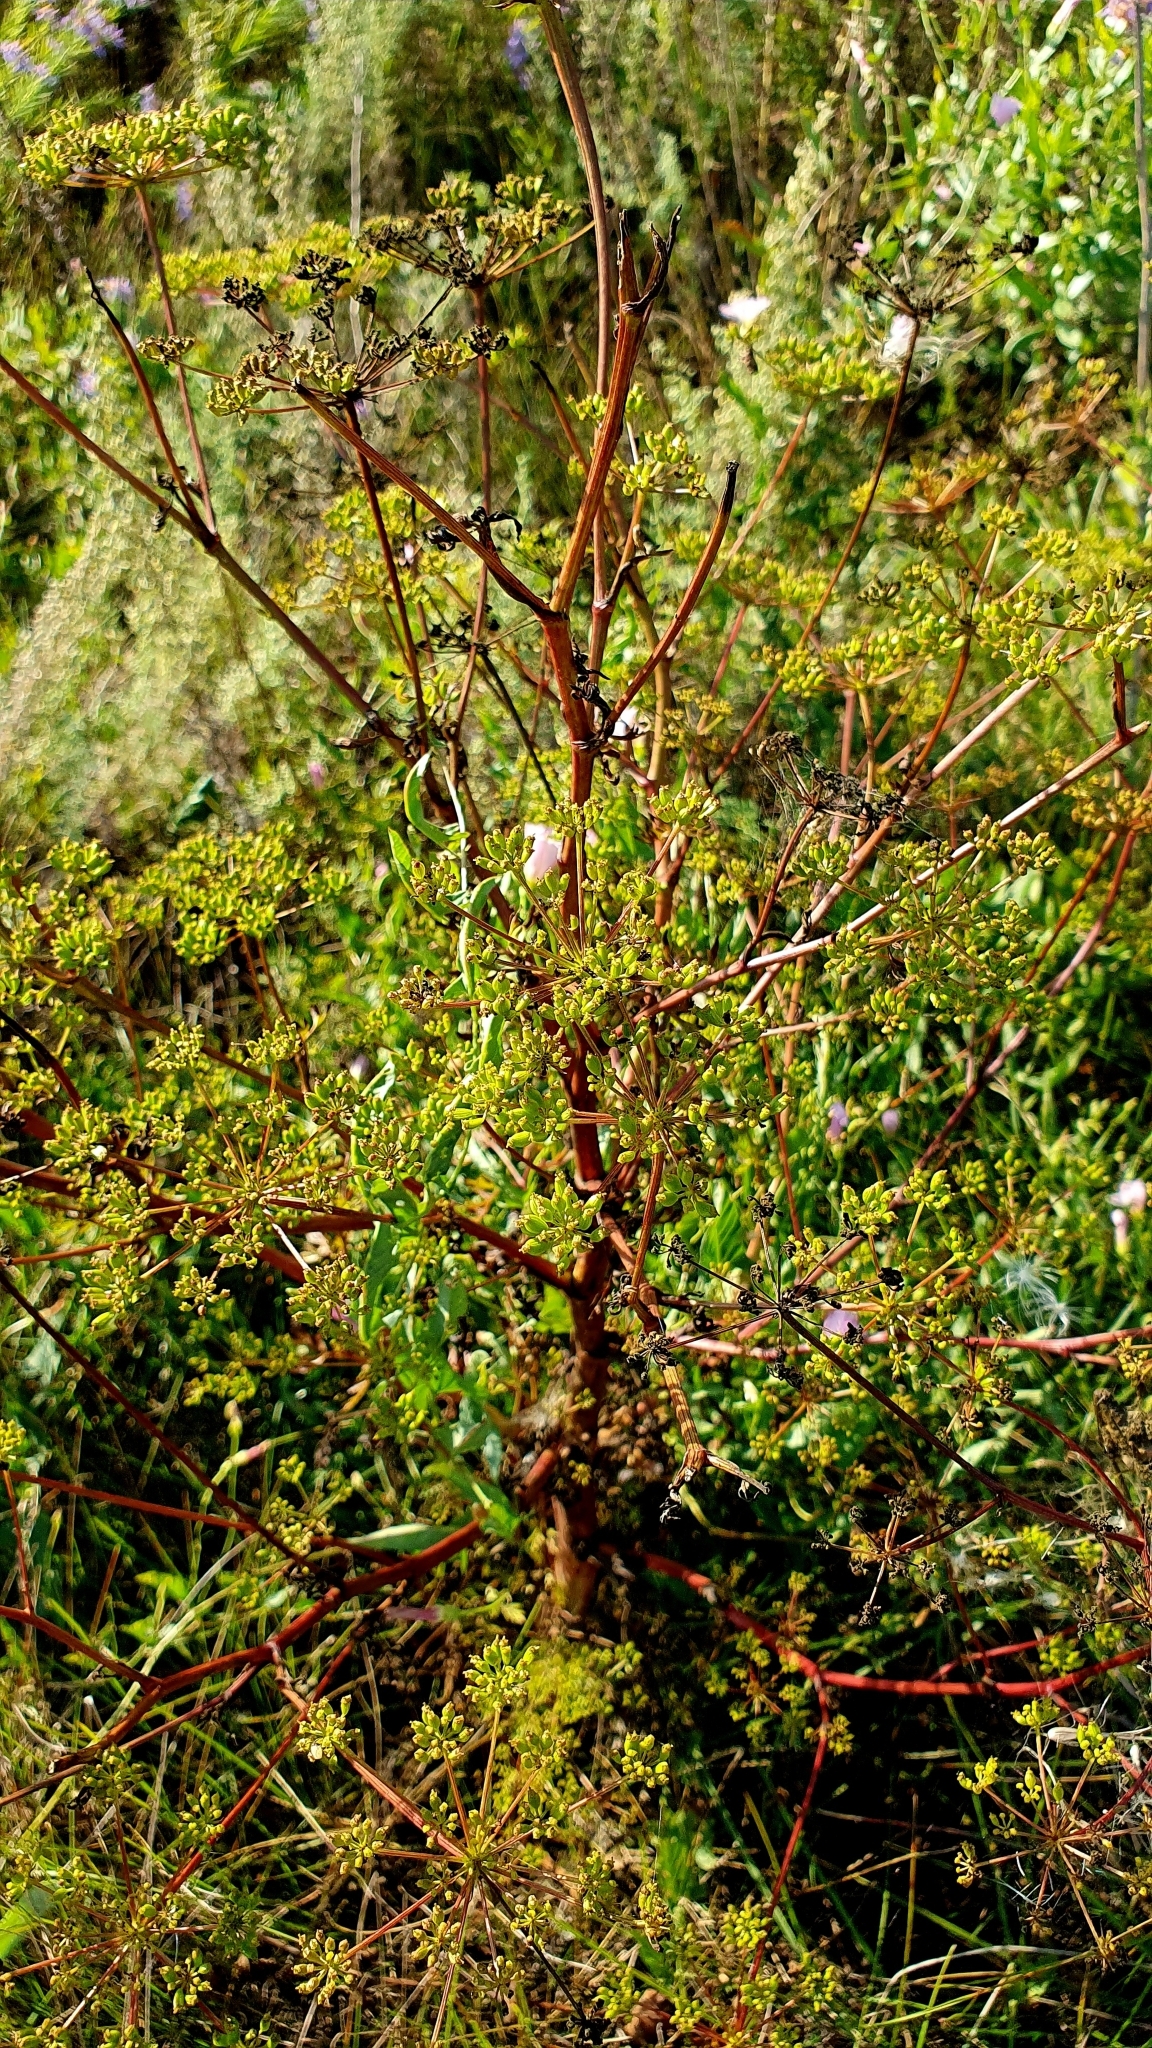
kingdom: Plantae
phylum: Tracheophyta
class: Magnoliopsida
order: Apiales
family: Apiaceae
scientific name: Apiaceae
